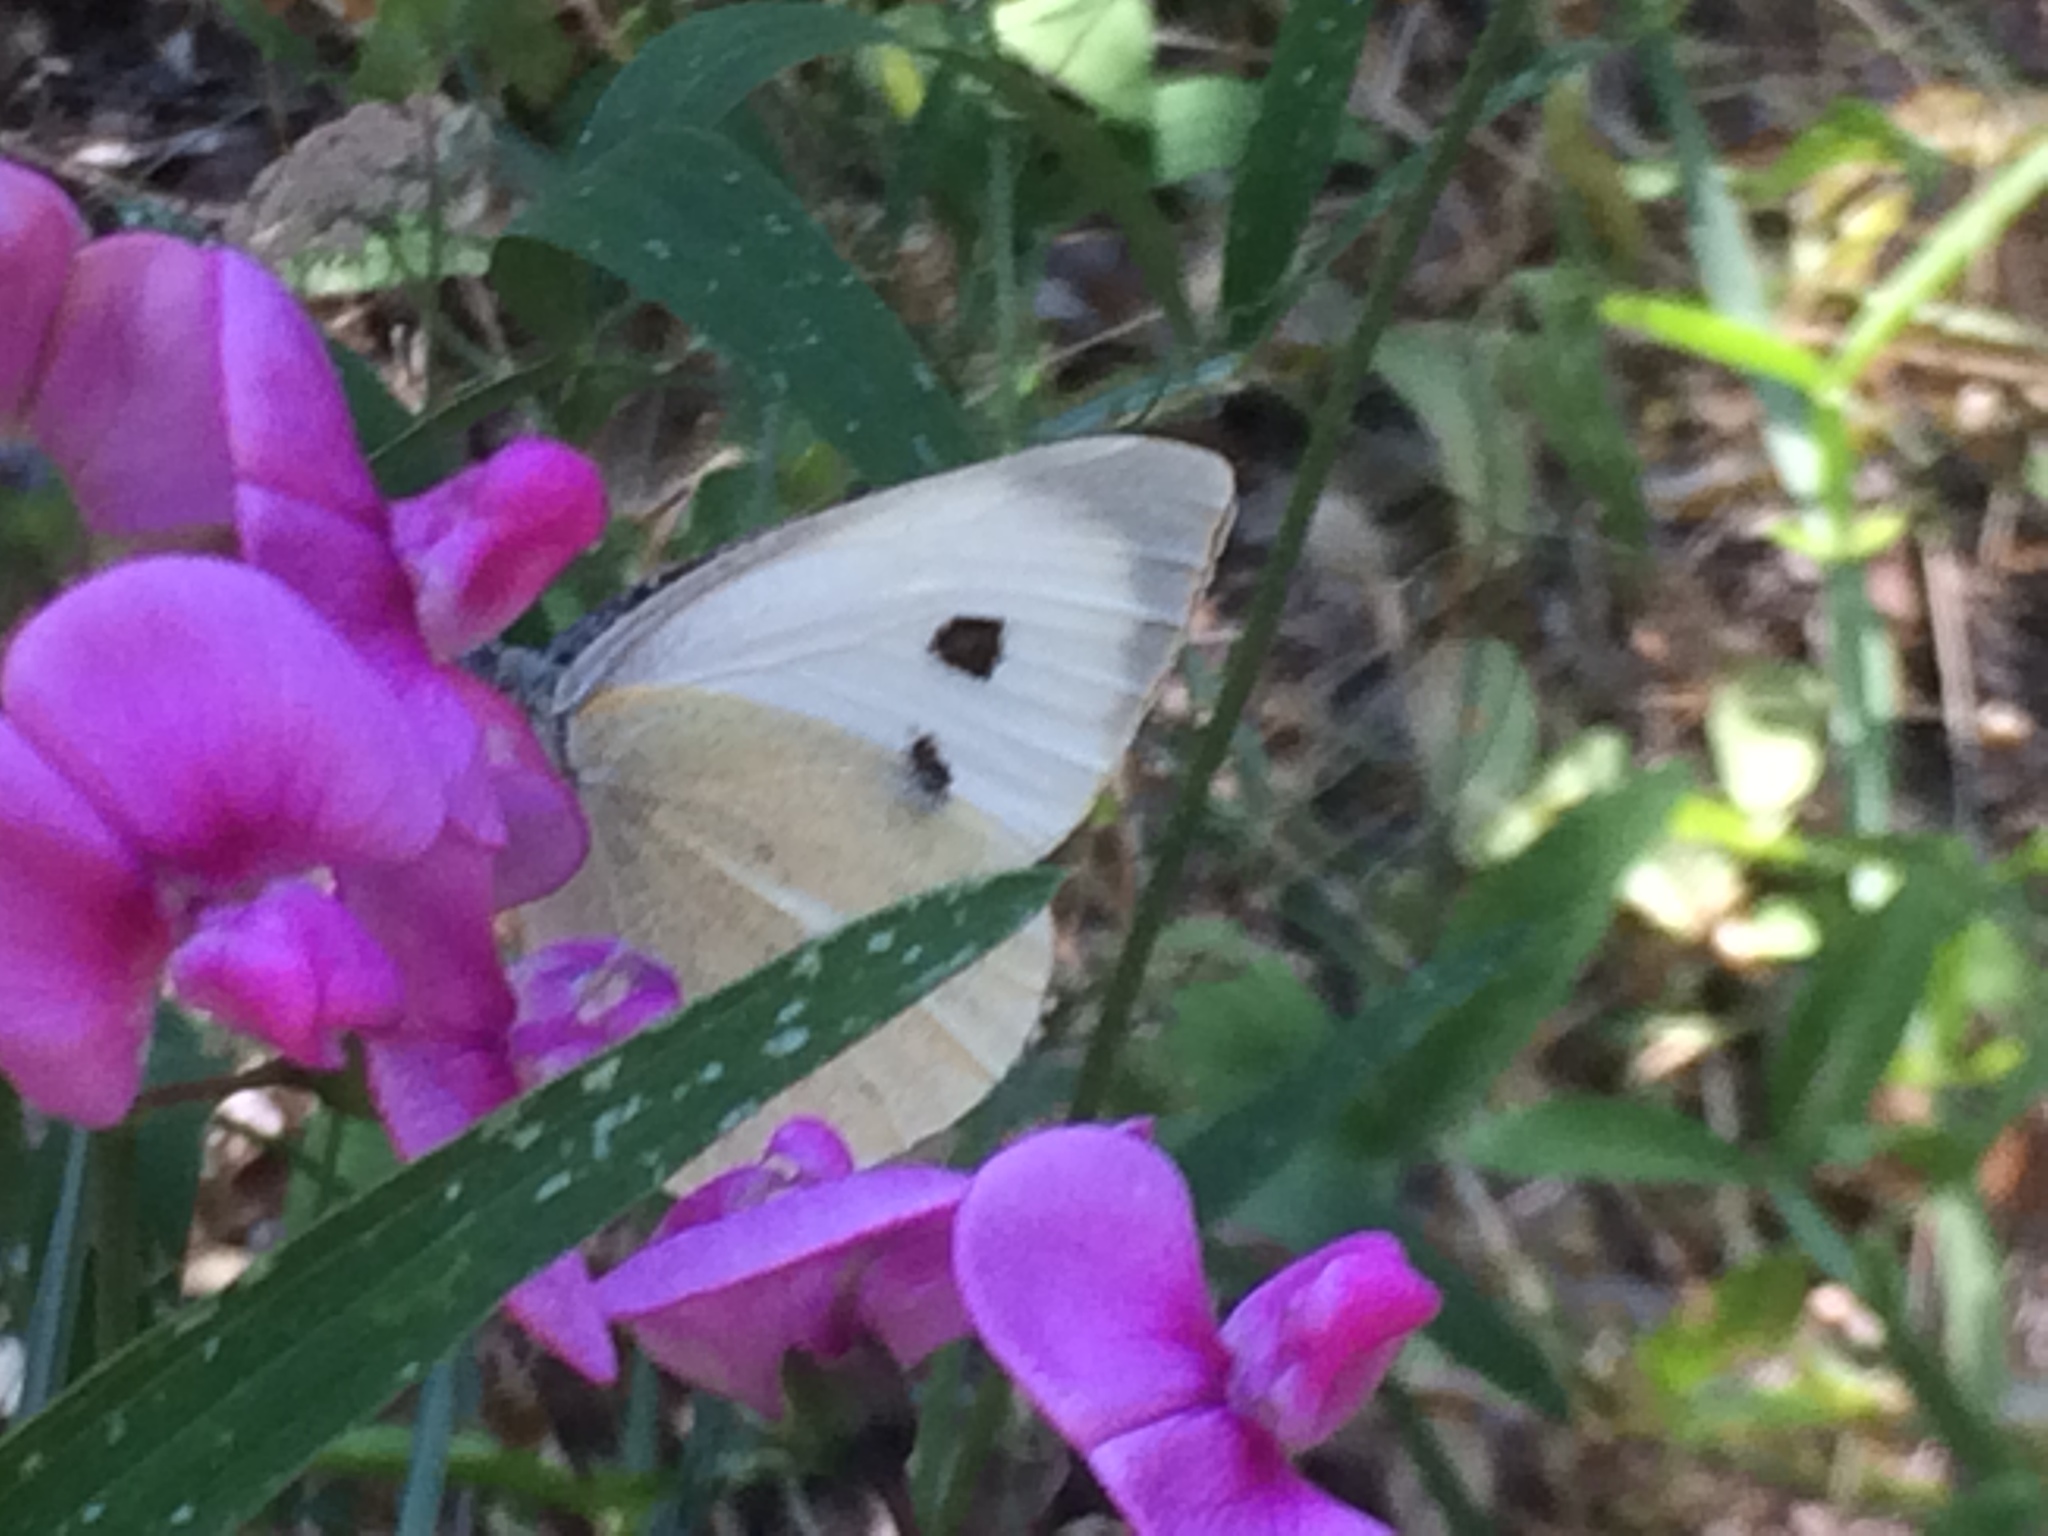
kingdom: Animalia
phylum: Arthropoda
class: Insecta
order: Lepidoptera
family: Pieridae
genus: Pieris
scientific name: Pieris brassicae
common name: Large white
